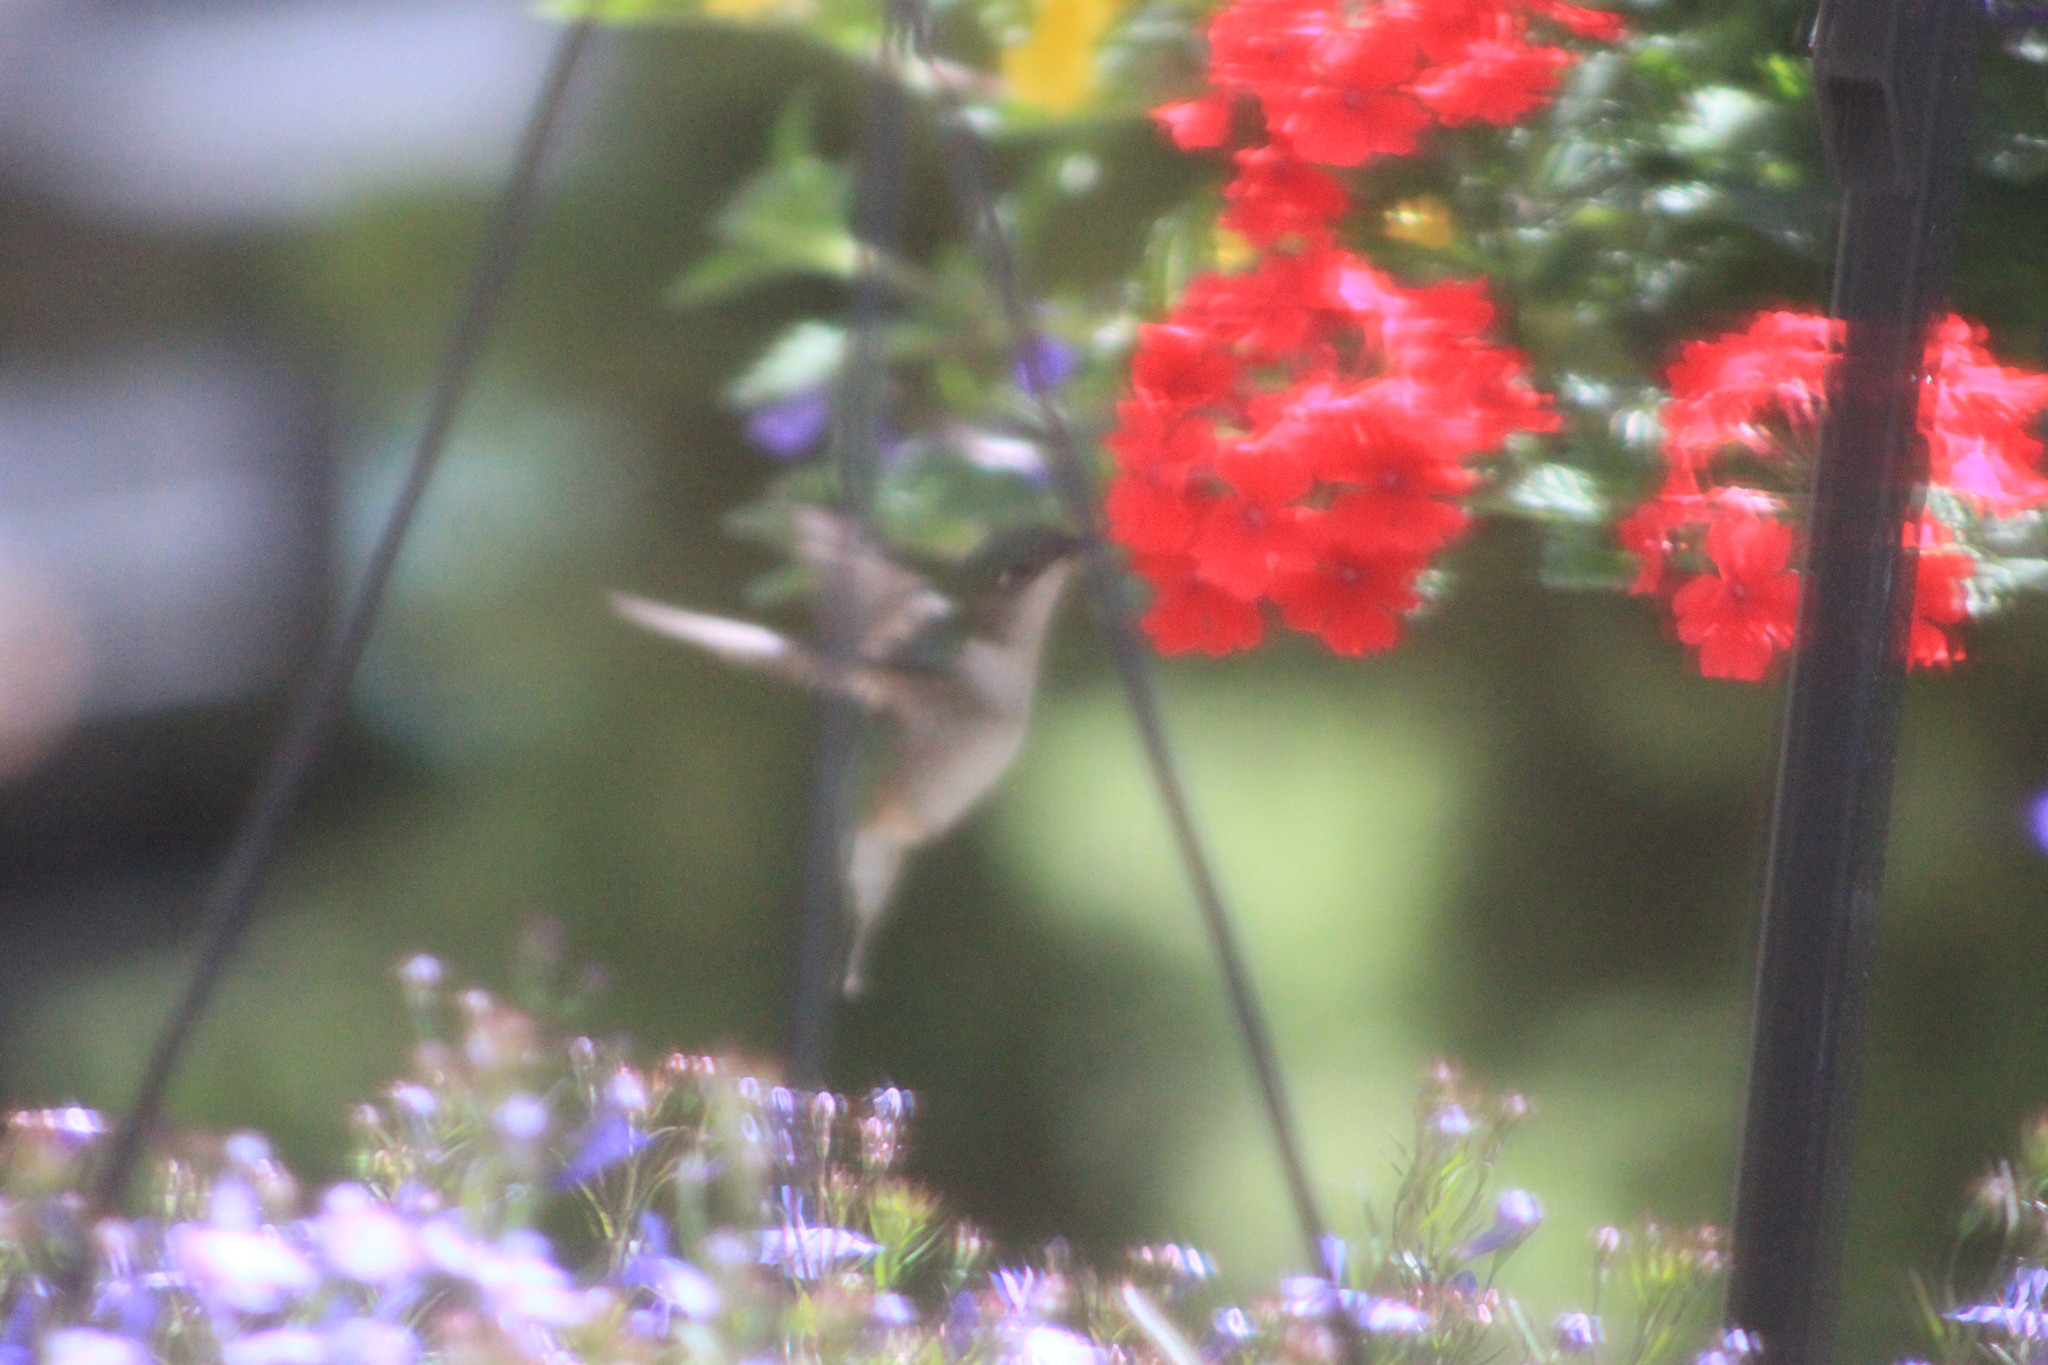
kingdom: Animalia
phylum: Chordata
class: Aves
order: Apodiformes
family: Trochilidae
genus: Archilochus
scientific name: Archilochus colubris
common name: Ruby-throated hummingbird
